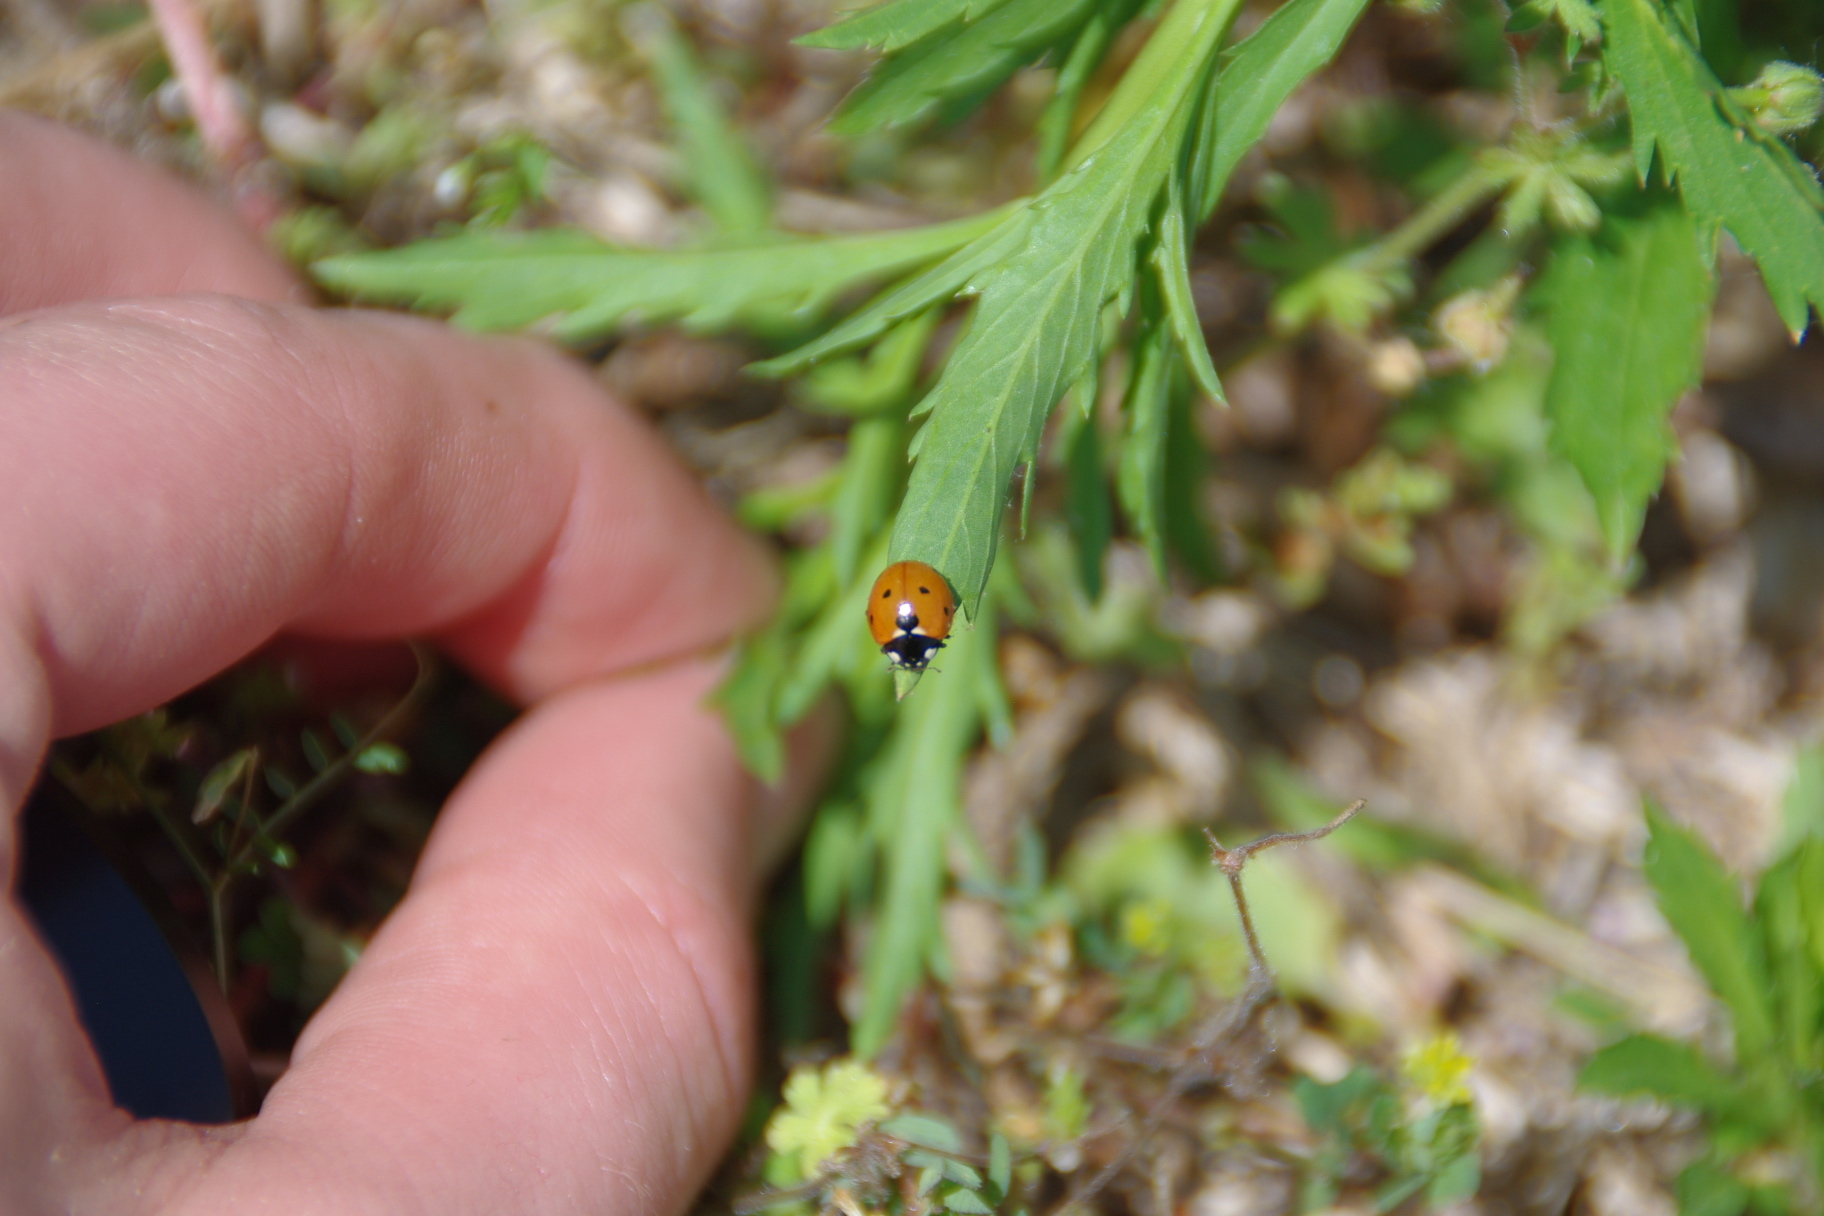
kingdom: Animalia
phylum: Arthropoda
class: Insecta
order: Coleoptera
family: Coccinellidae
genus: Coccinella
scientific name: Coccinella septempunctata
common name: Sevenspotted lady beetle
